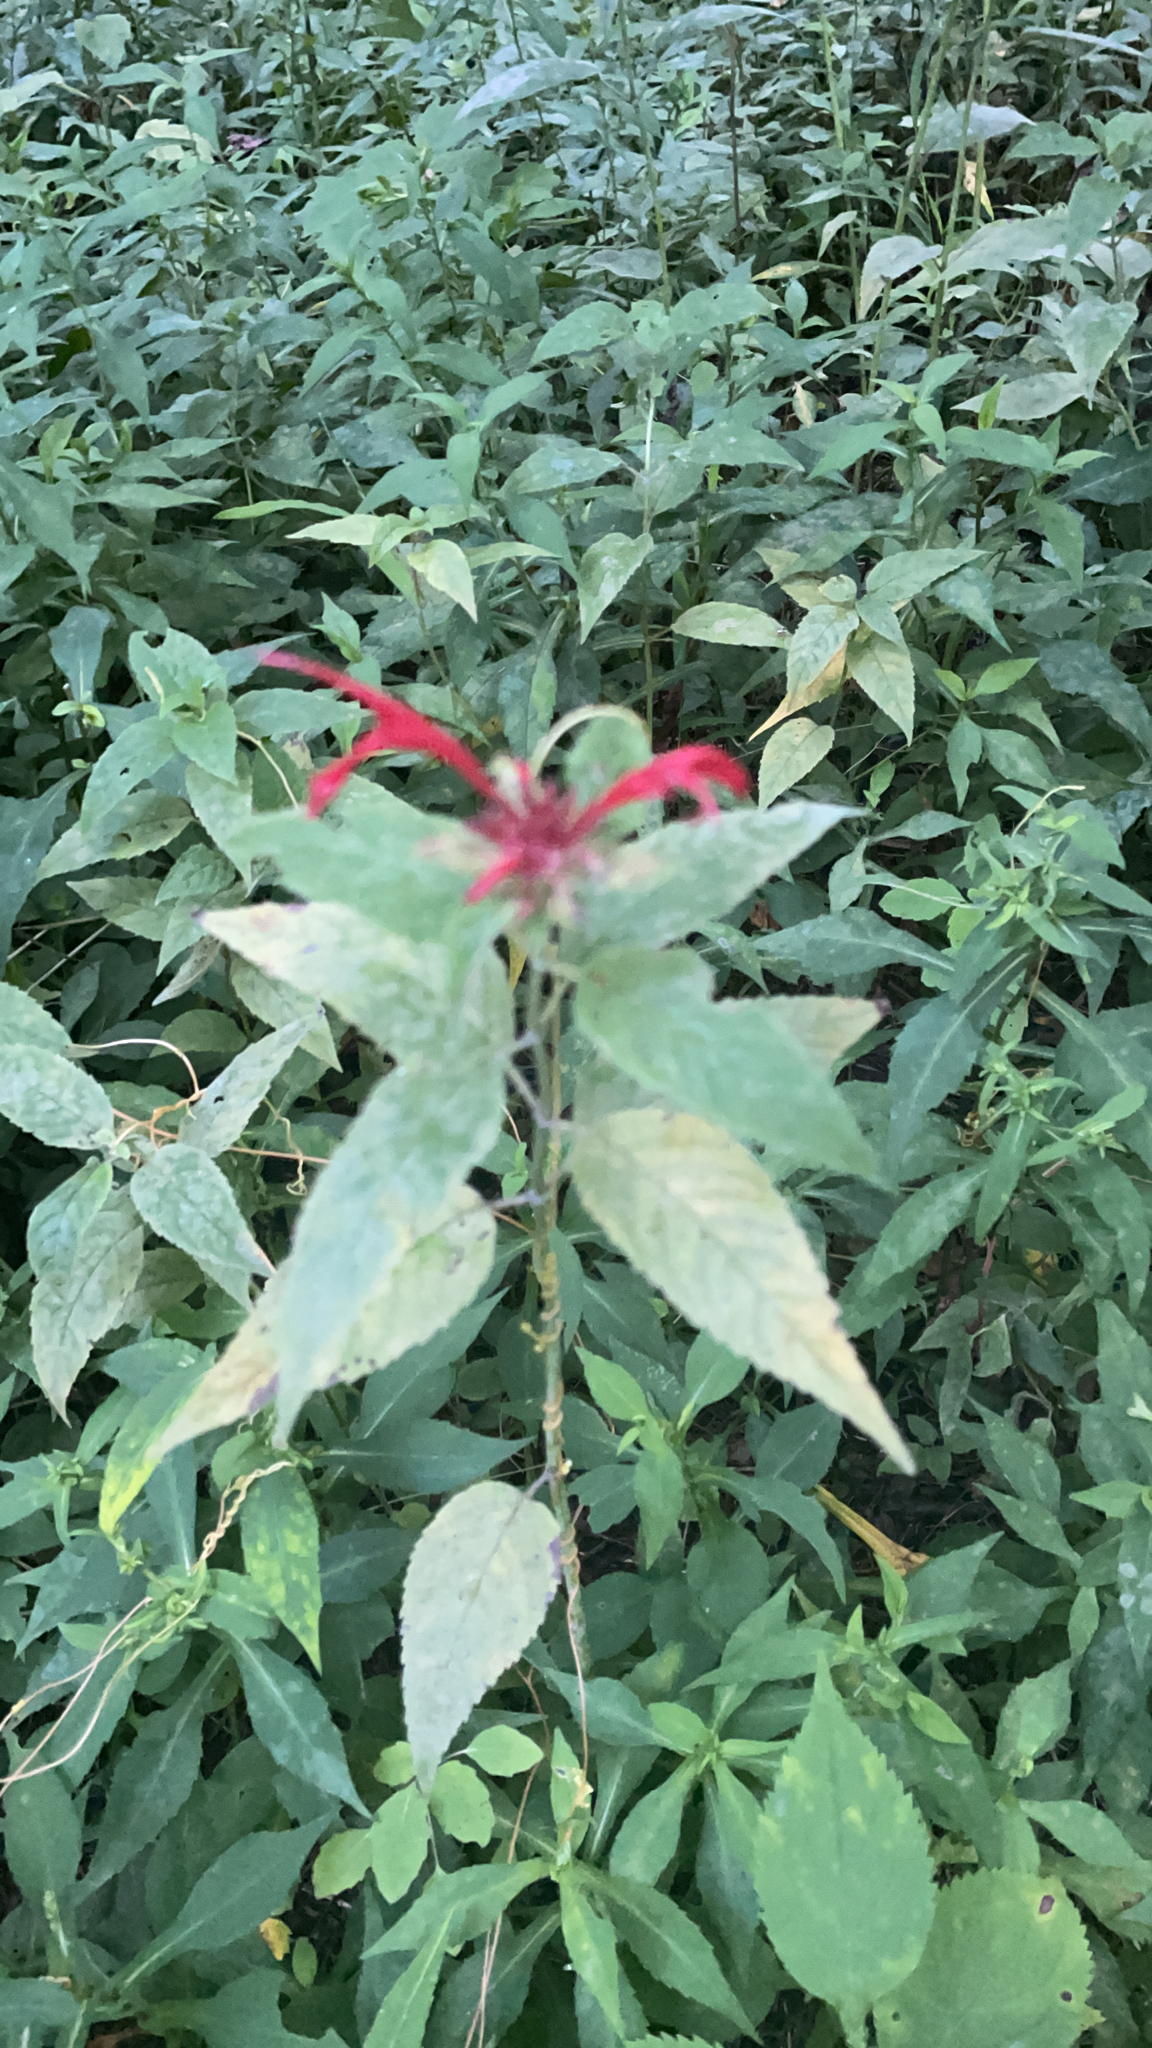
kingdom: Plantae
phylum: Tracheophyta
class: Magnoliopsida
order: Lamiales
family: Lamiaceae
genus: Monarda
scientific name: Monarda didyma
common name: Beebalm
